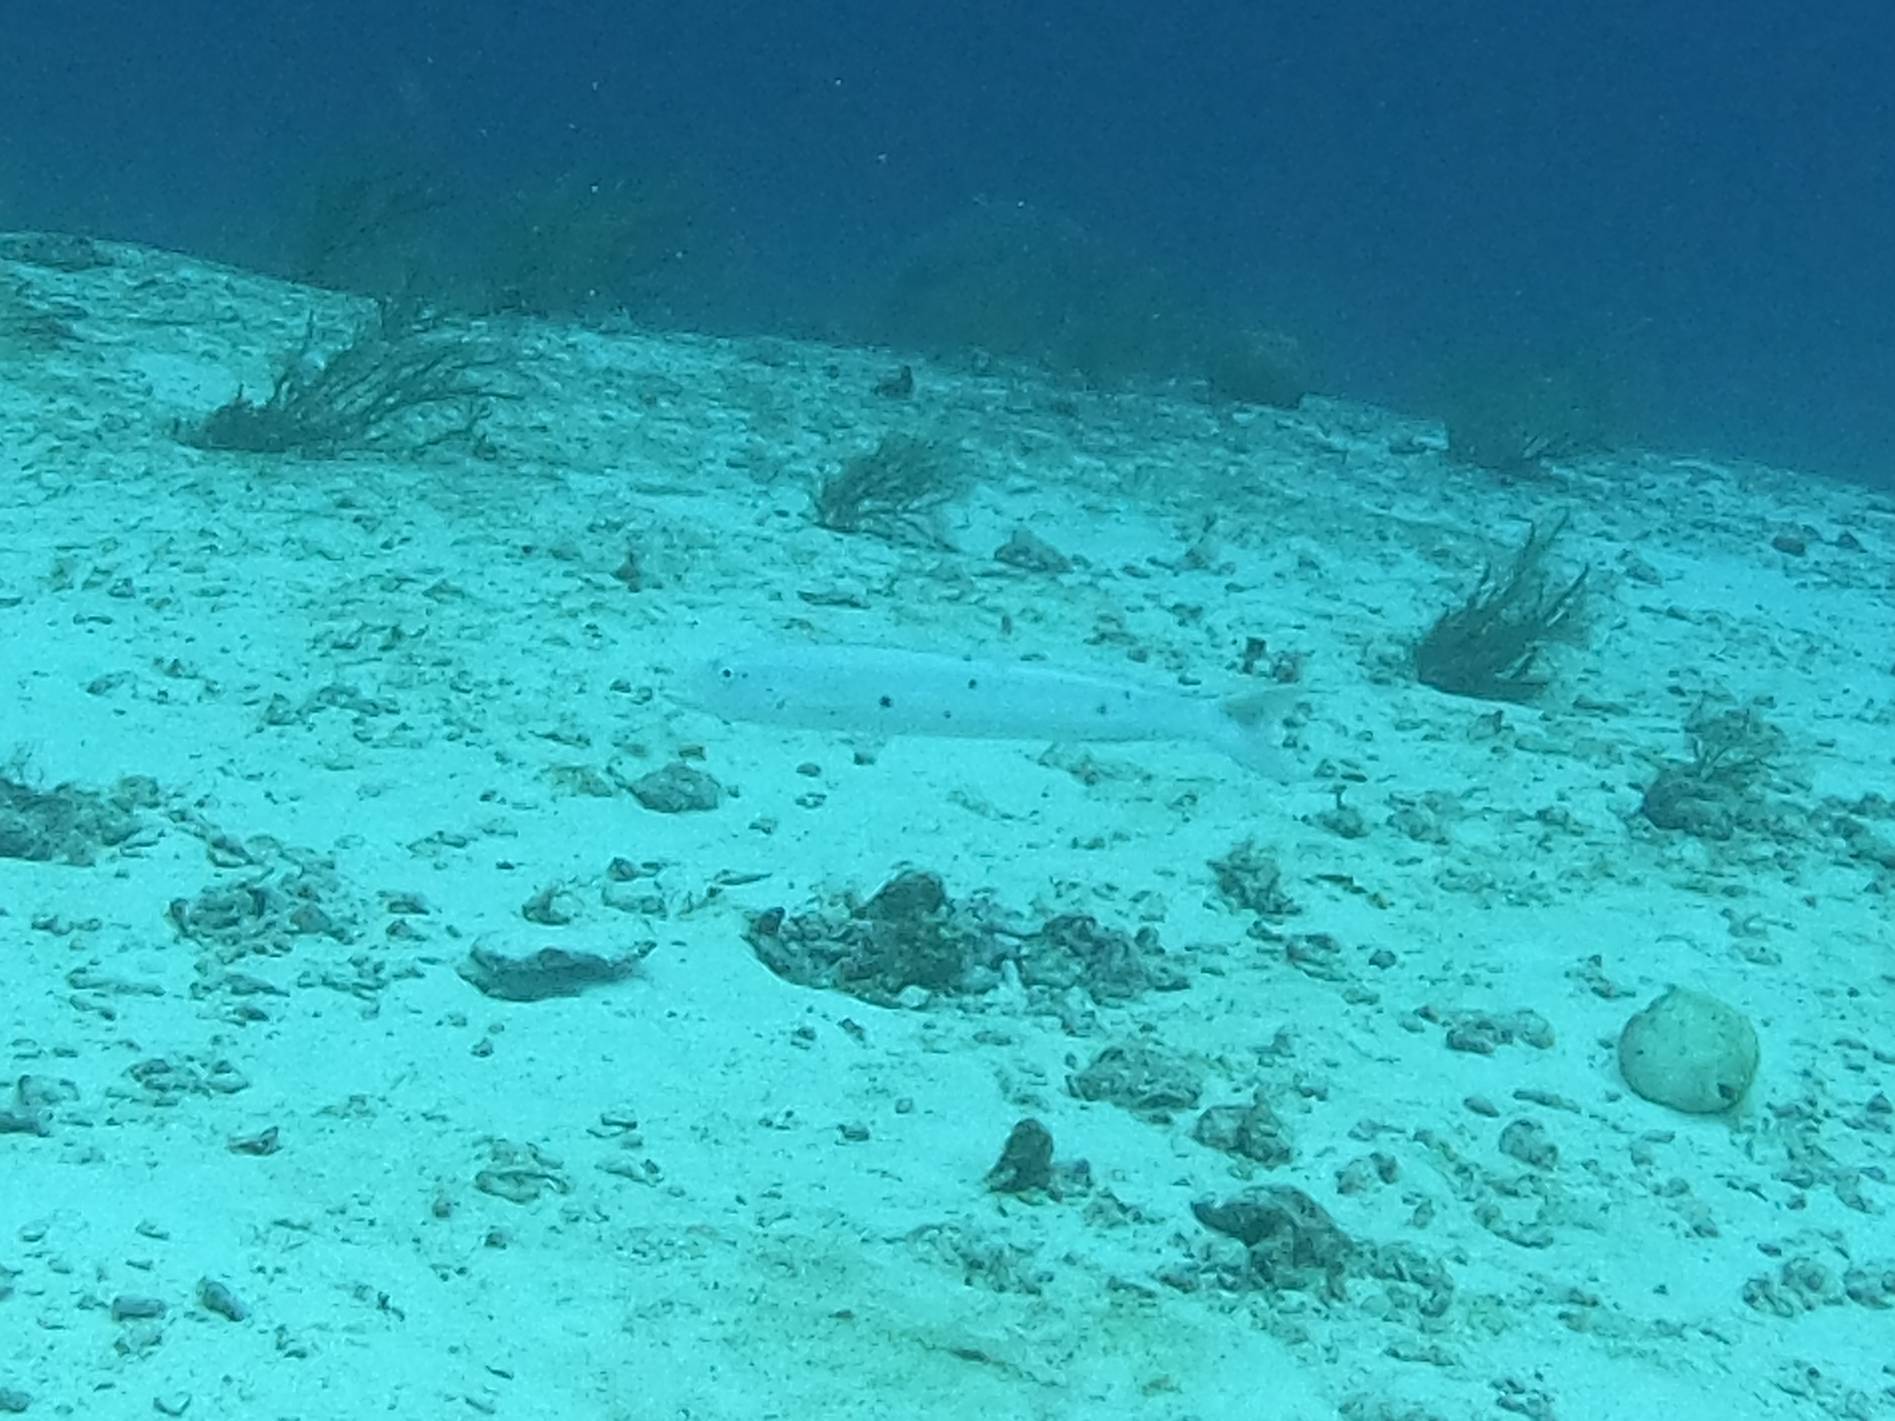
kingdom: Animalia
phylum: Chordata
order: Perciformes
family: Malacanthidae
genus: Malacanthus
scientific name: Malacanthus plumieri
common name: Sand tilefish
